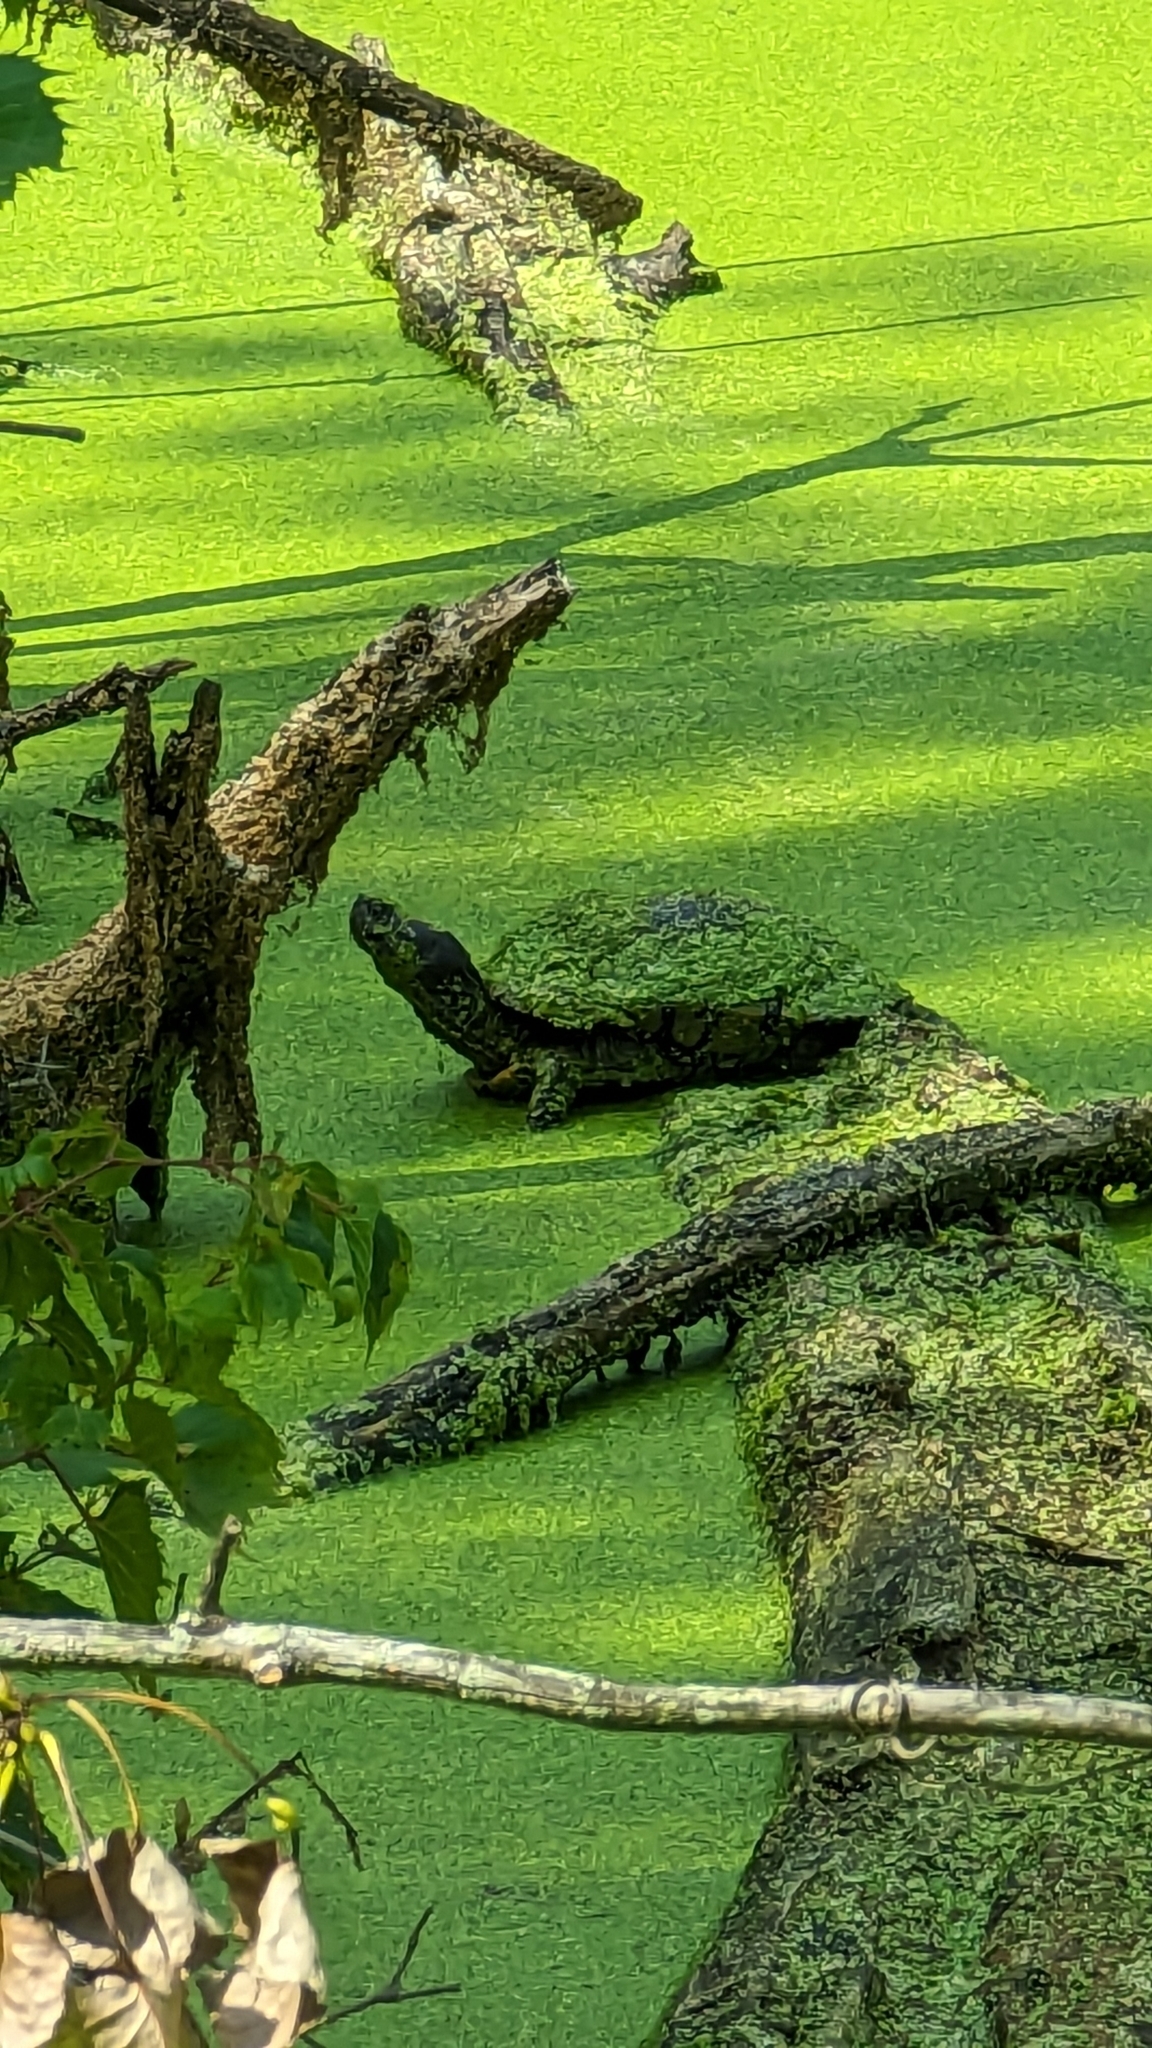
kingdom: Animalia
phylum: Chordata
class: Testudines
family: Emydidae
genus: Trachemys
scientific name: Trachemys scripta
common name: Slider
